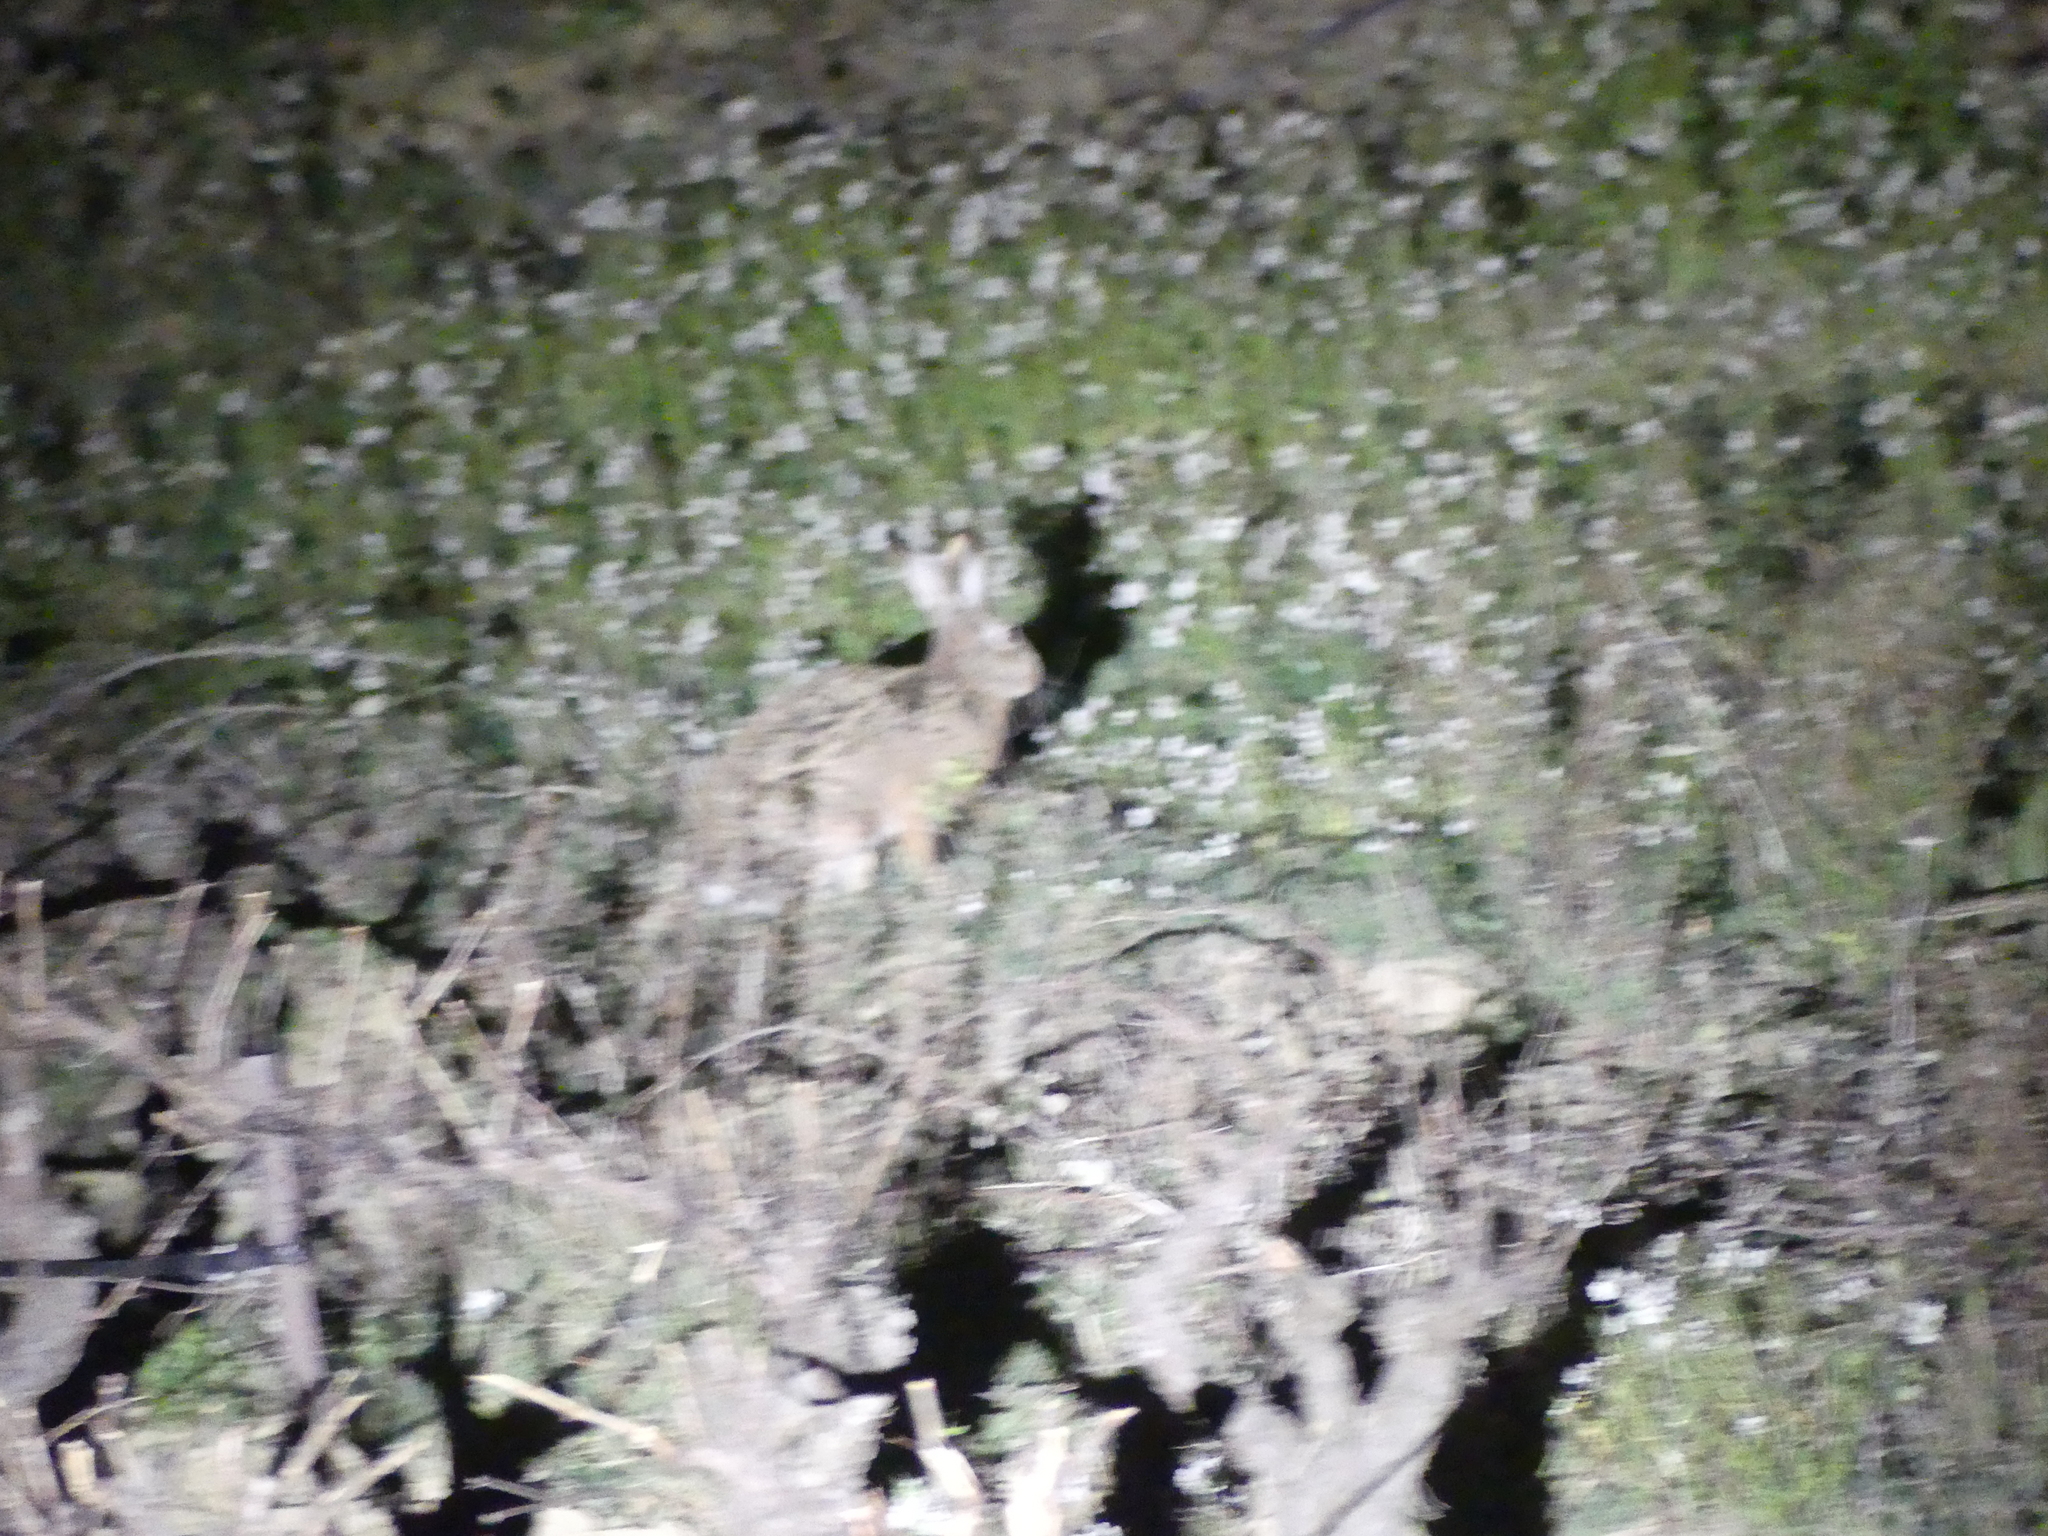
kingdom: Animalia
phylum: Chordata
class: Mammalia
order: Lagomorpha
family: Leporidae
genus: Lepus
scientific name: Lepus europaeus
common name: European hare
